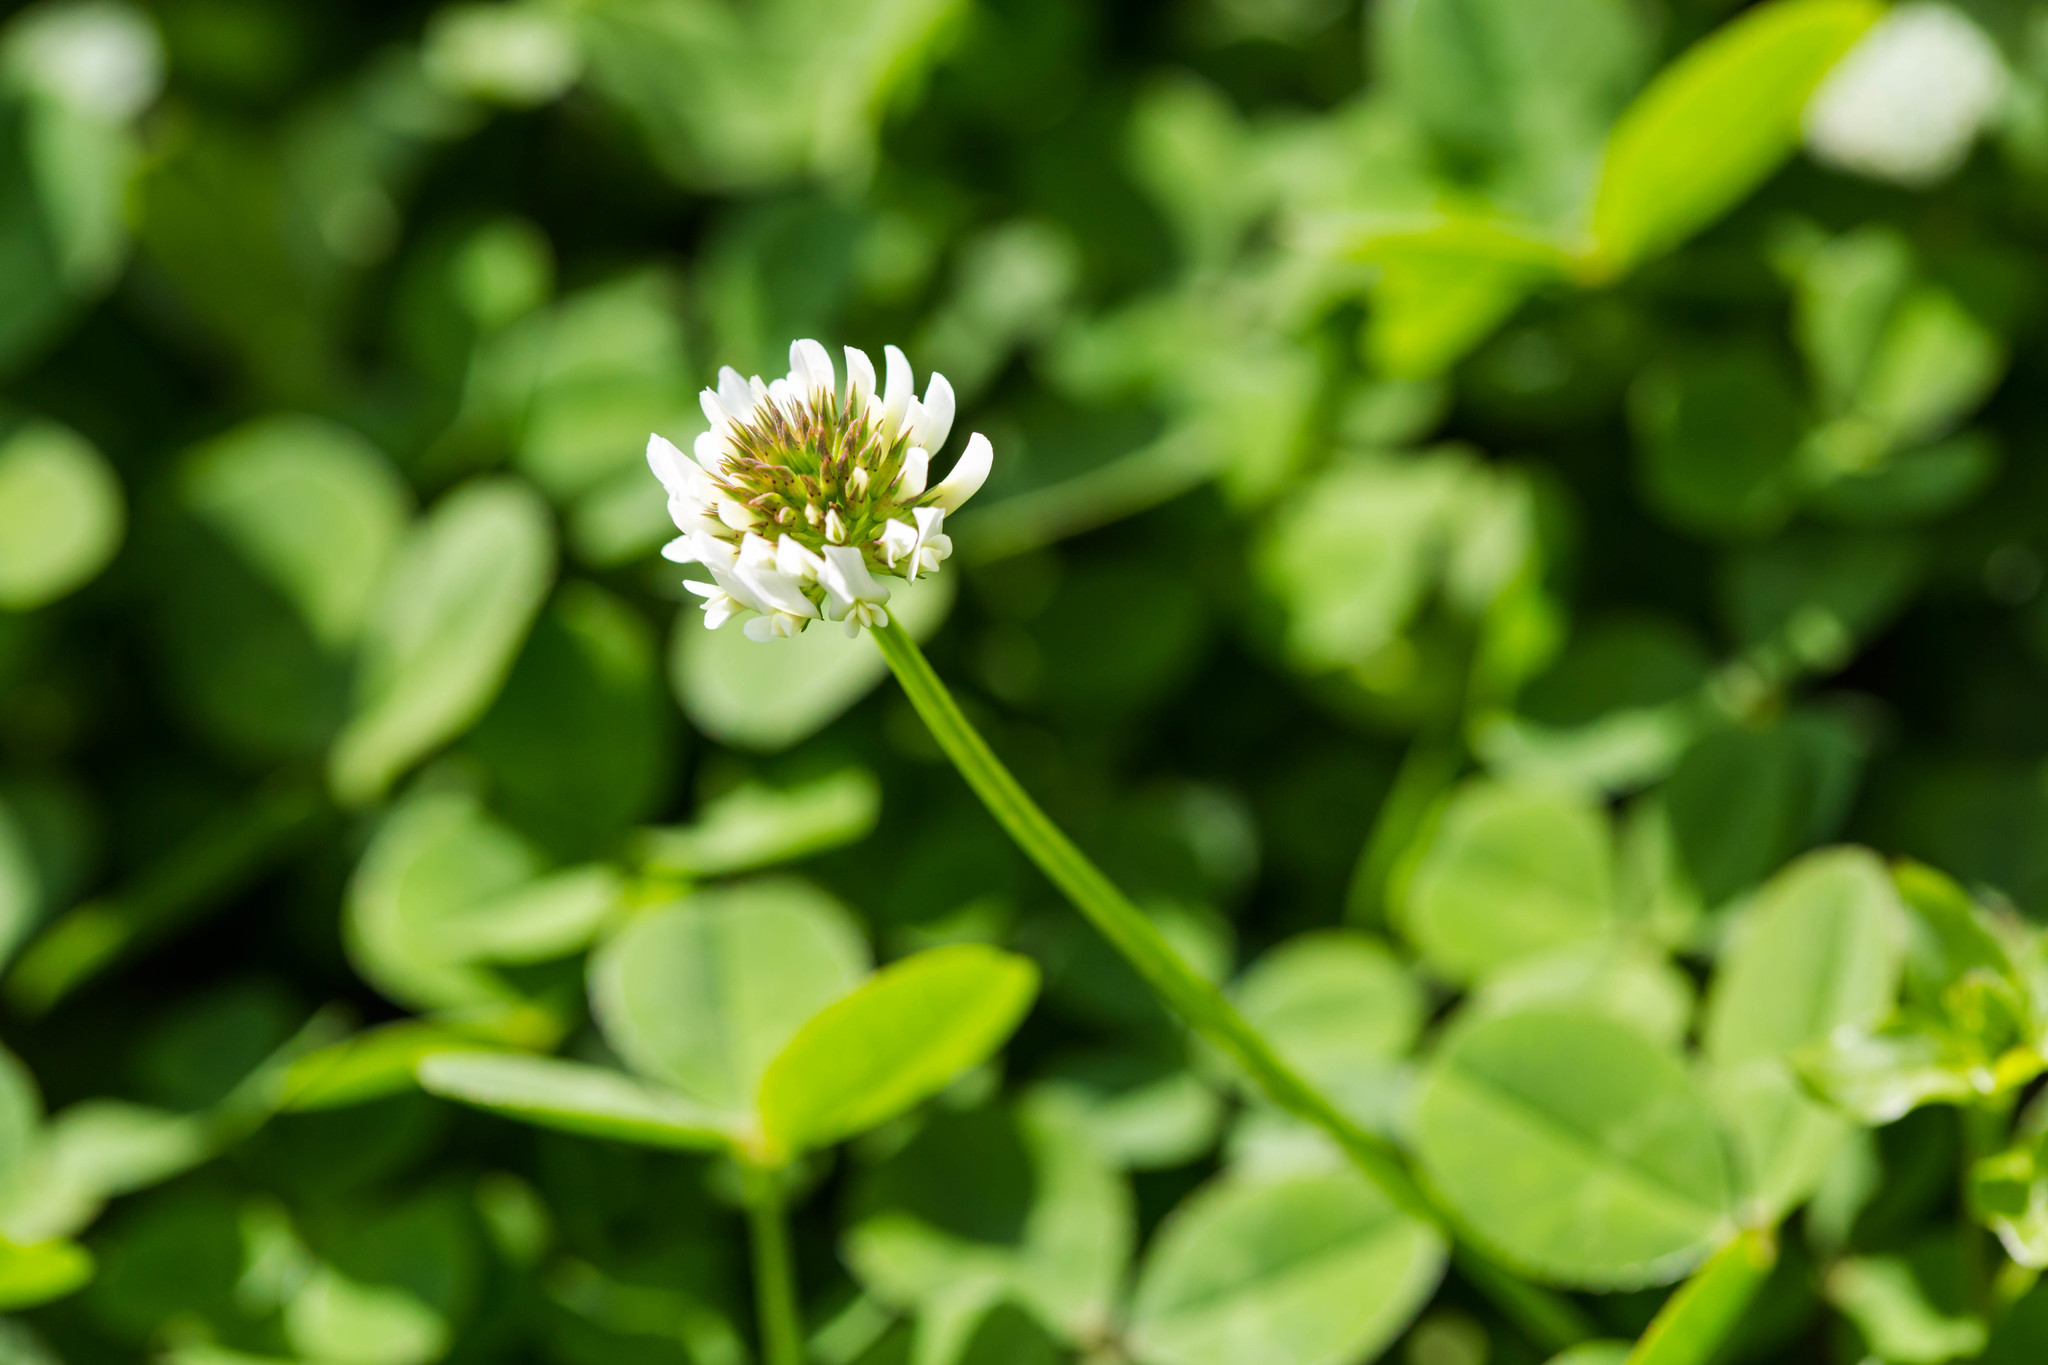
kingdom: Plantae
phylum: Tracheophyta
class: Magnoliopsida
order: Fabales
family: Fabaceae
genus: Trifolium
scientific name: Trifolium repens
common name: White clover
